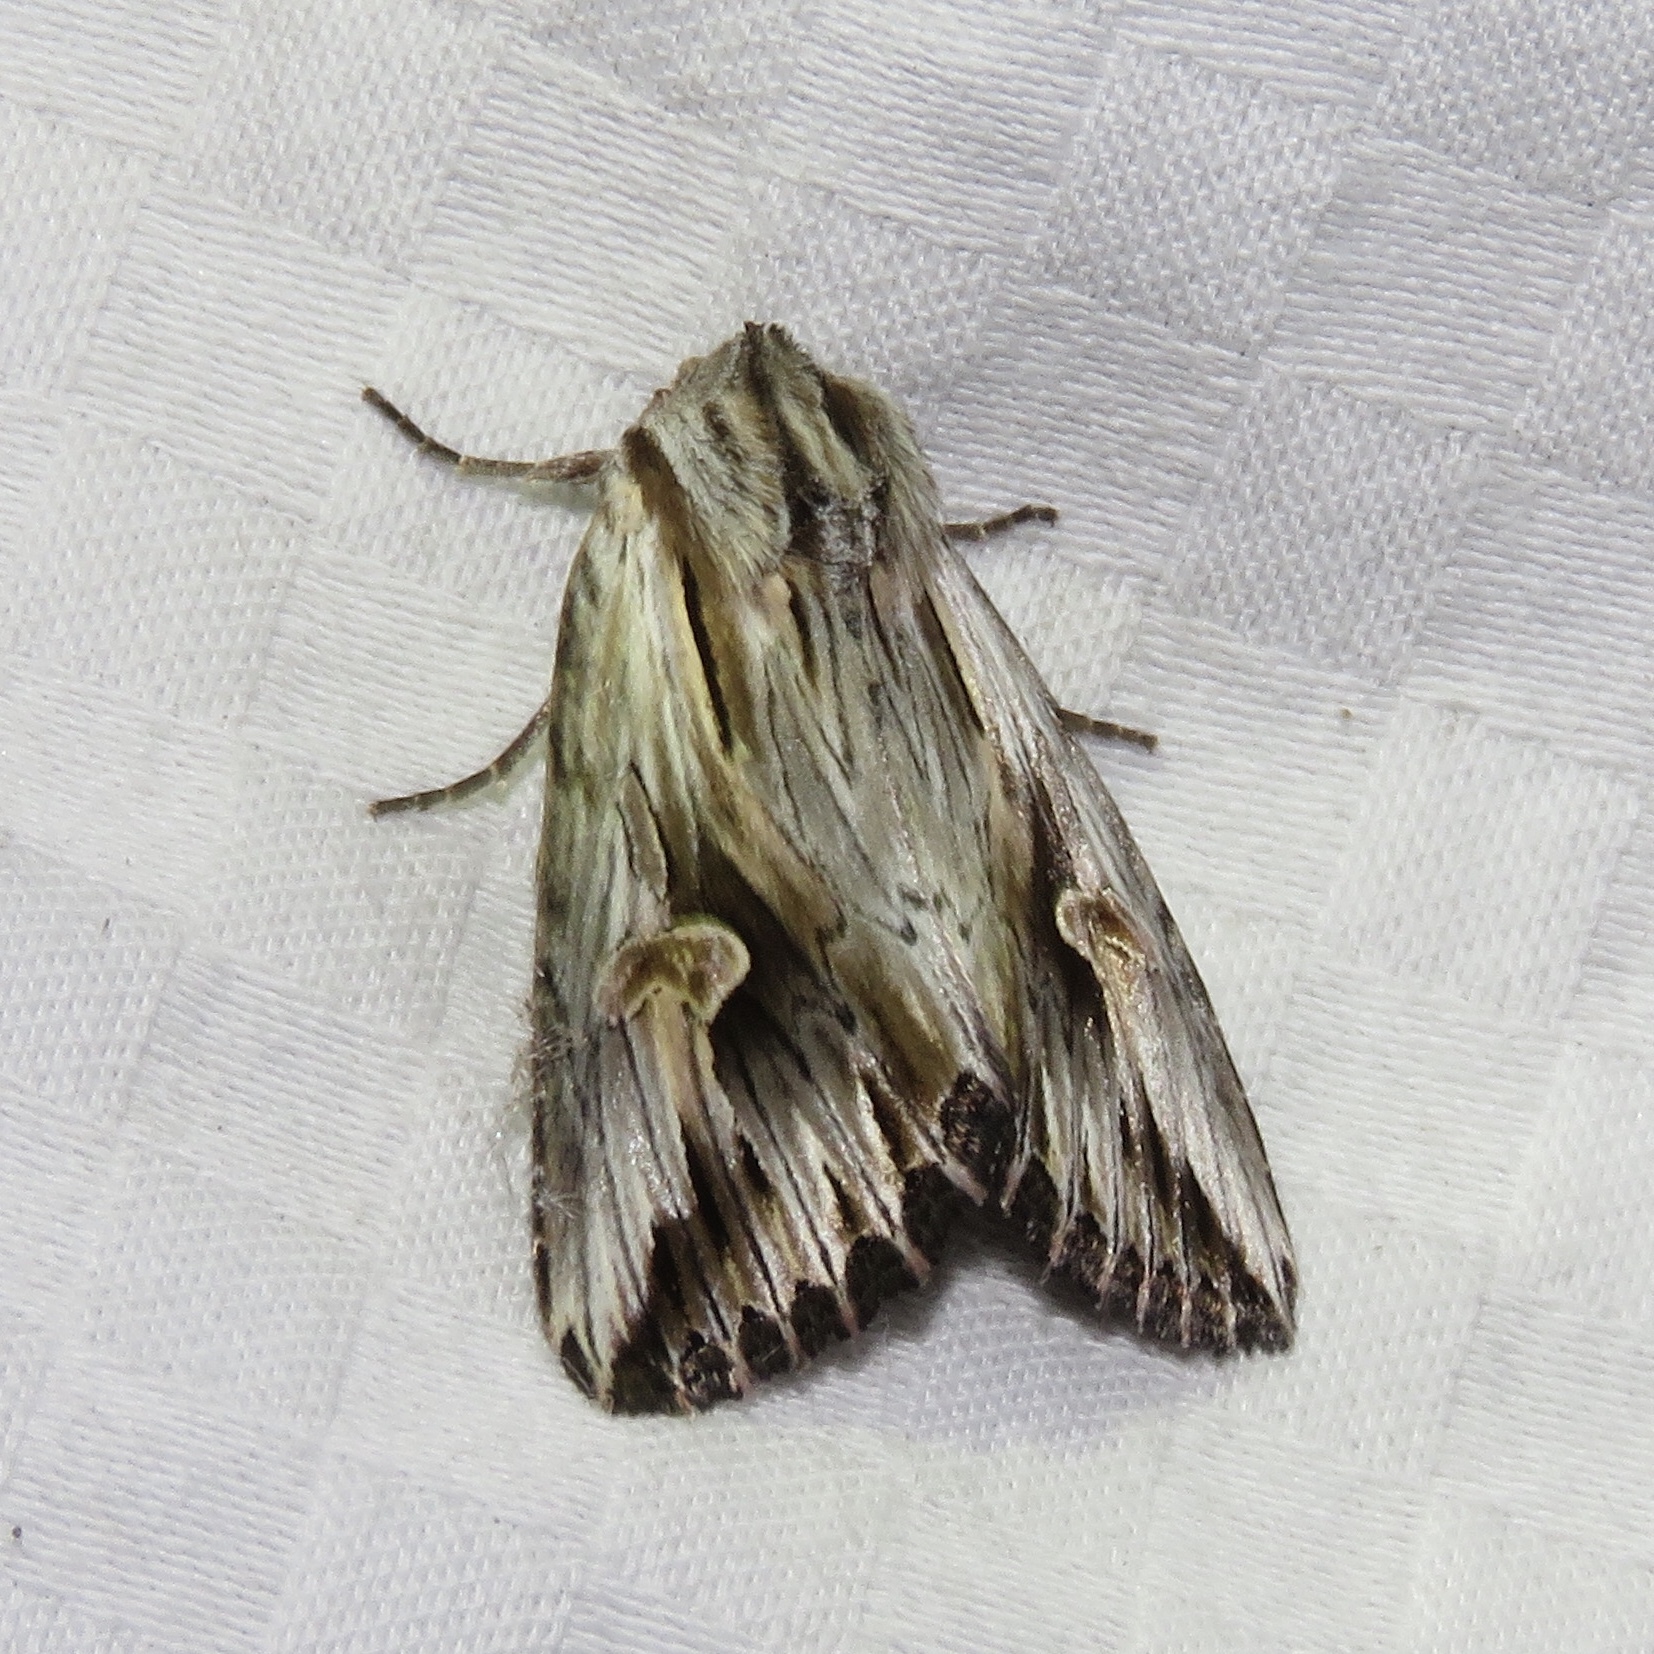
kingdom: Animalia
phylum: Arthropoda
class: Insecta
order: Lepidoptera
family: Noctuidae
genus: Nedra
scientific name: Nedra ramosula
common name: Gray half-spot
